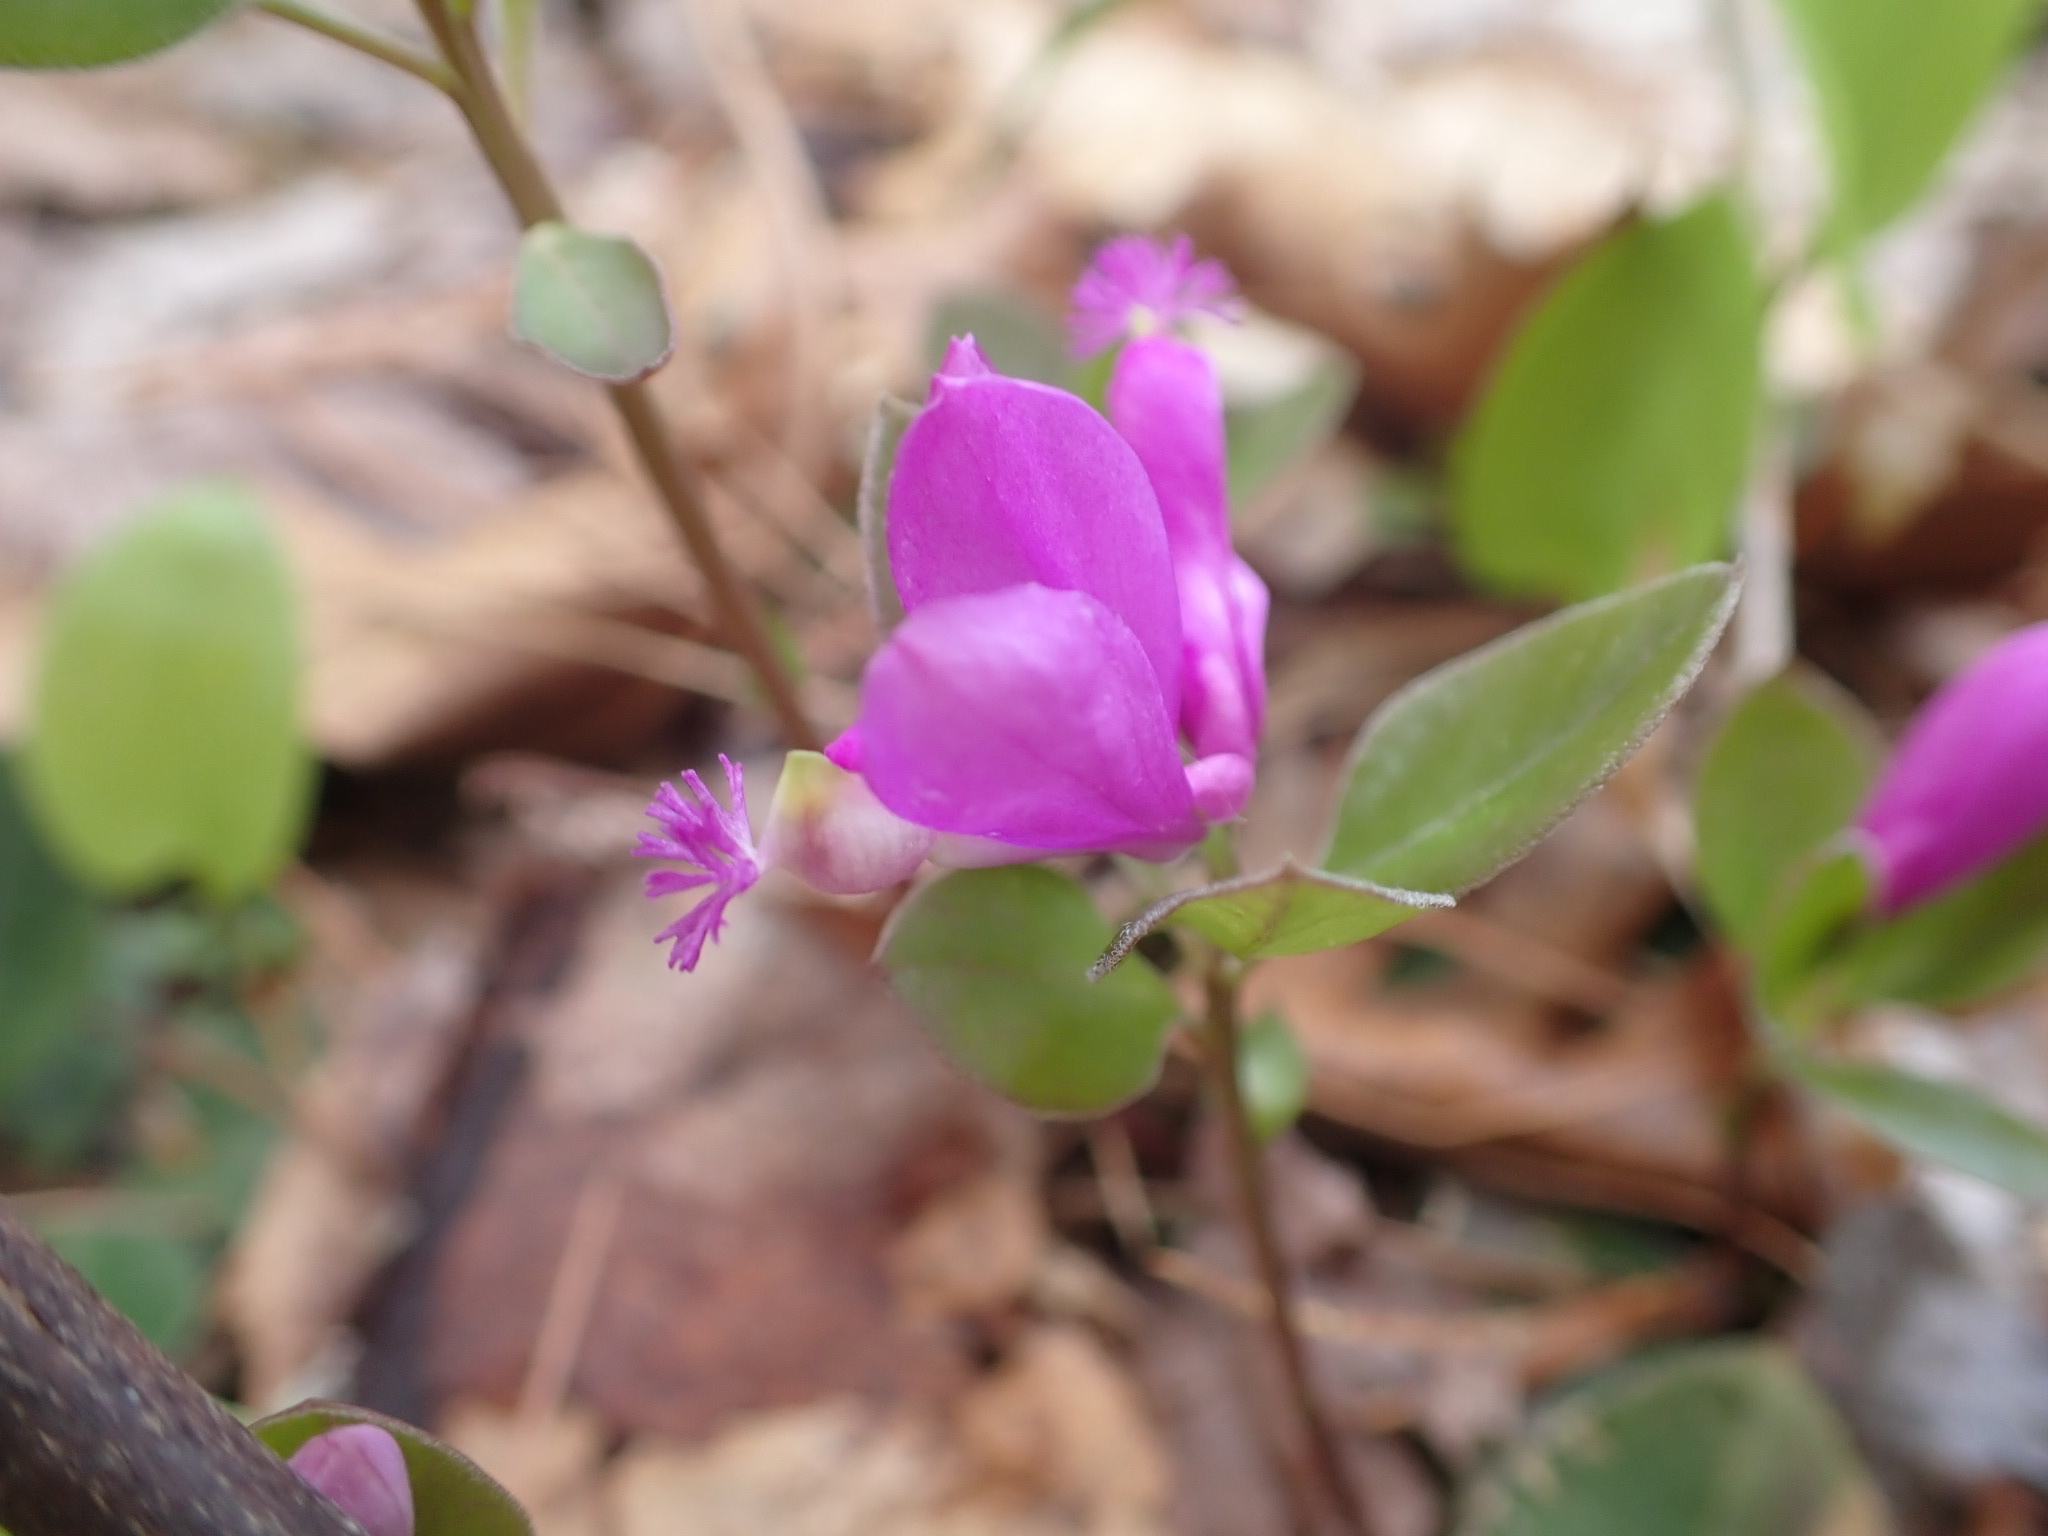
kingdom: Plantae
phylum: Tracheophyta
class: Magnoliopsida
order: Fabales
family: Polygalaceae
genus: Polygaloides
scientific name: Polygaloides paucifolia
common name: Bird-on-the-wing
